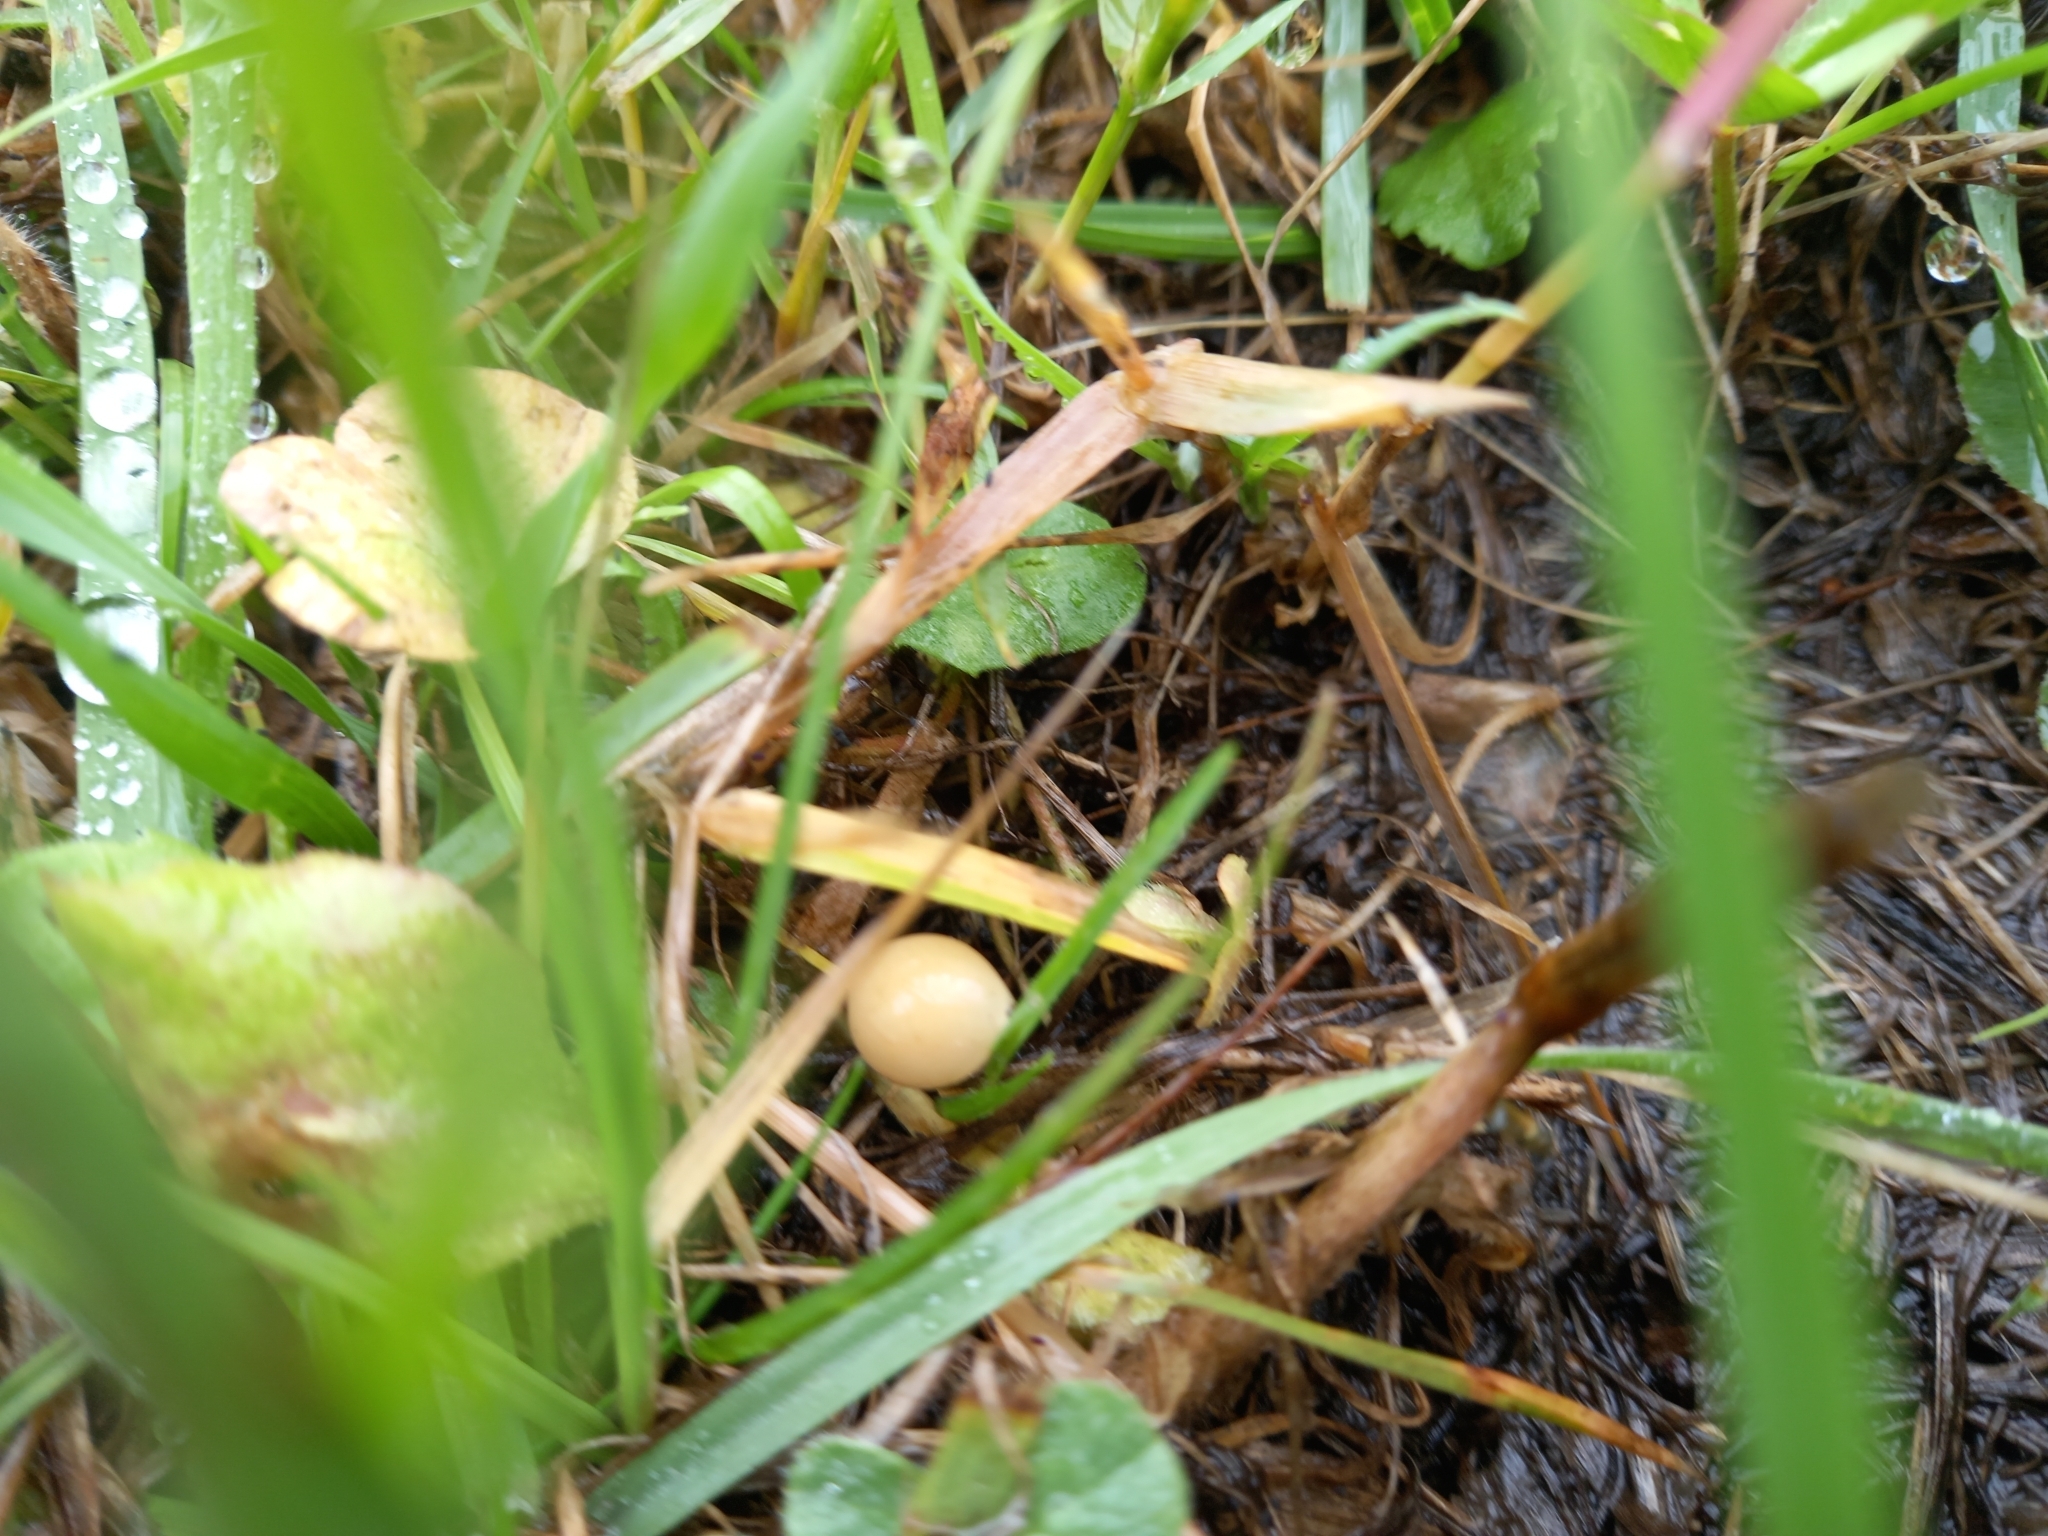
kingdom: Fungi
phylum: Basidiomycota
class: Agaricomycetes
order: Agaricales
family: Strophariaceae
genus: Agrocybe
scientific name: Agrocybe pediades
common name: Common fieldcap
